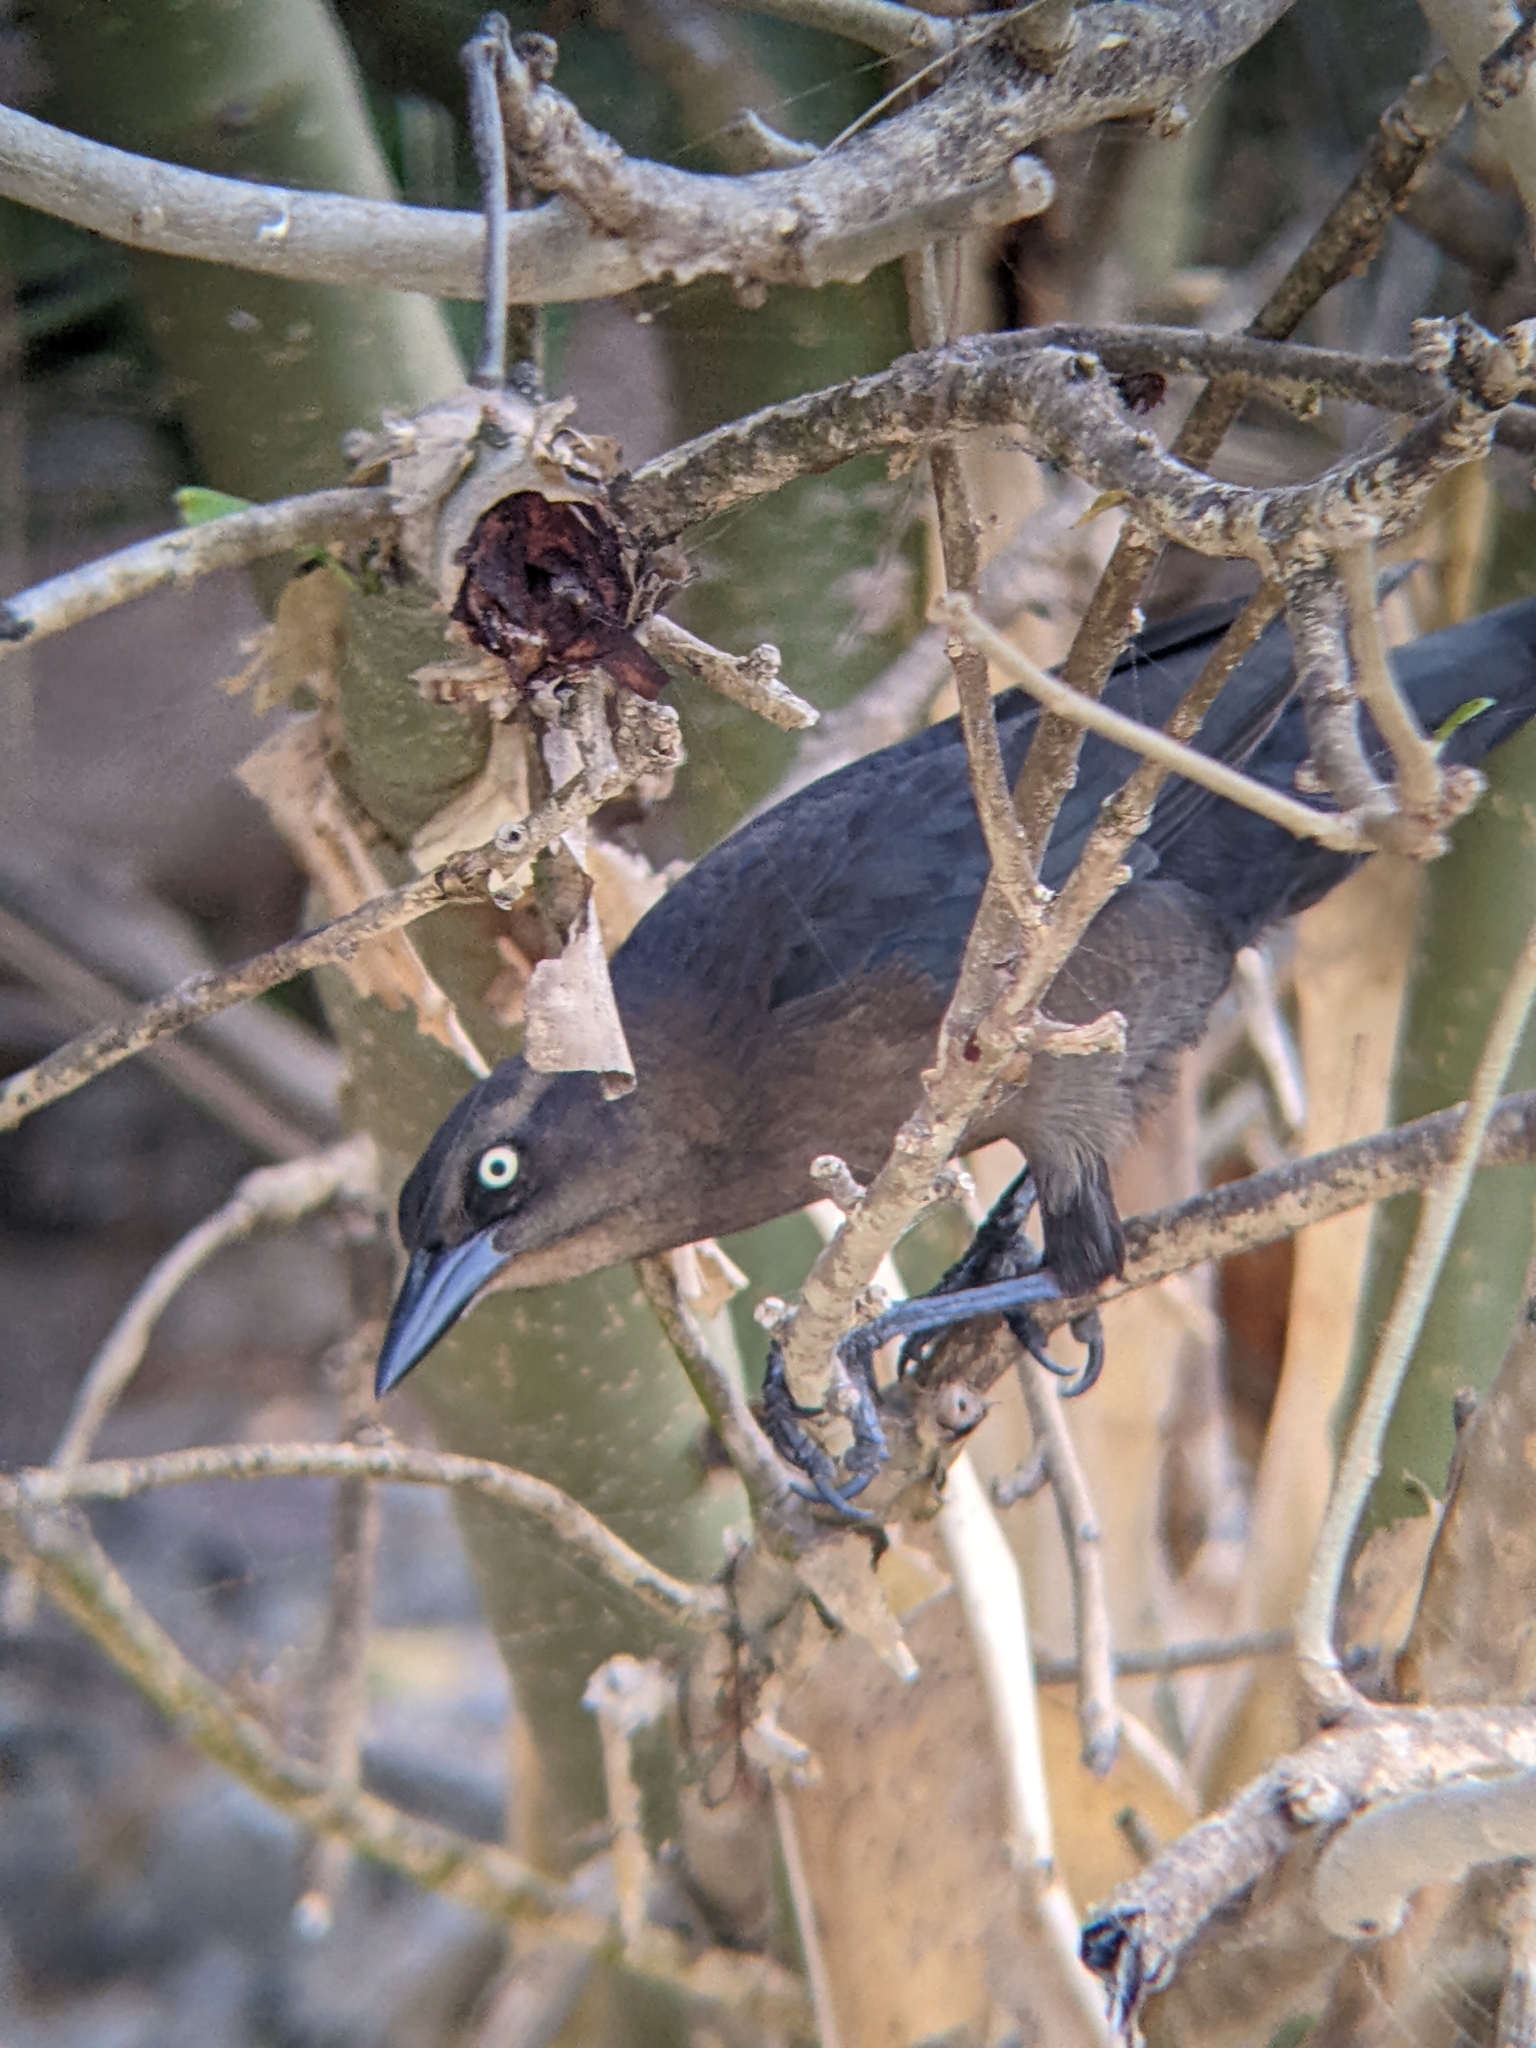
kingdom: Animalia
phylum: Chordata
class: Aves
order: Passeriformes
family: Icteridae
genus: Quiscalus
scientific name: Quiscalus mexicanus
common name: Great-tailed grackle
